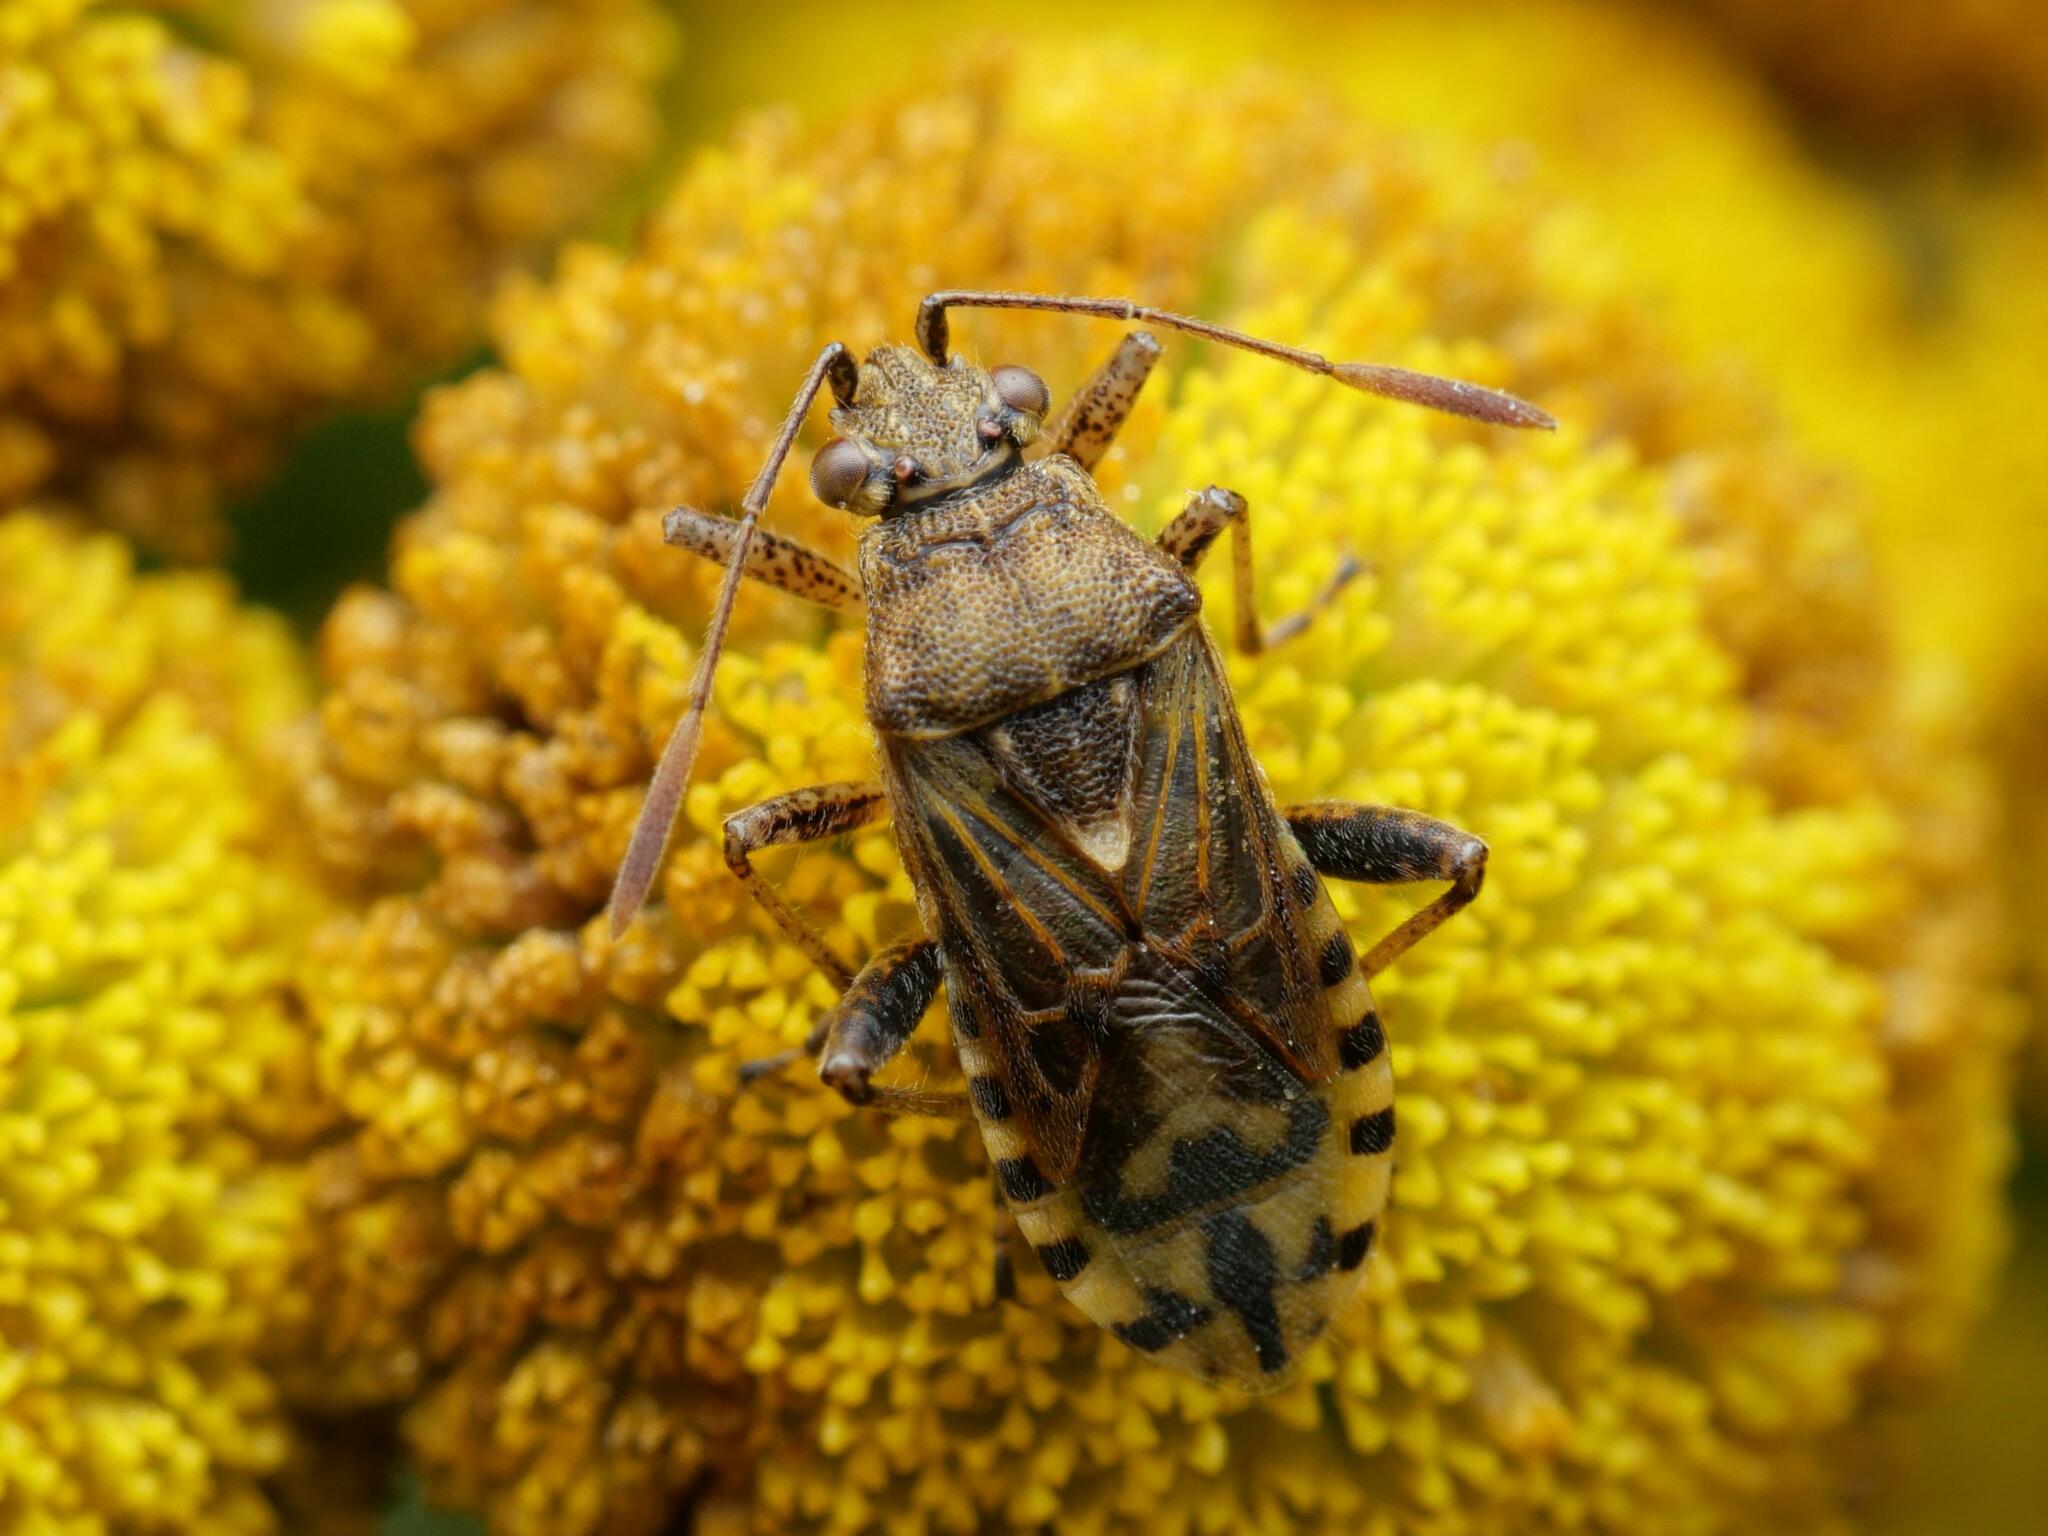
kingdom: Animalia
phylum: Arthropoda
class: Insecta
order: Hemiptera
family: Rhopalidae
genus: Stictopleurus
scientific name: Stictopleurus punctatonervosus
